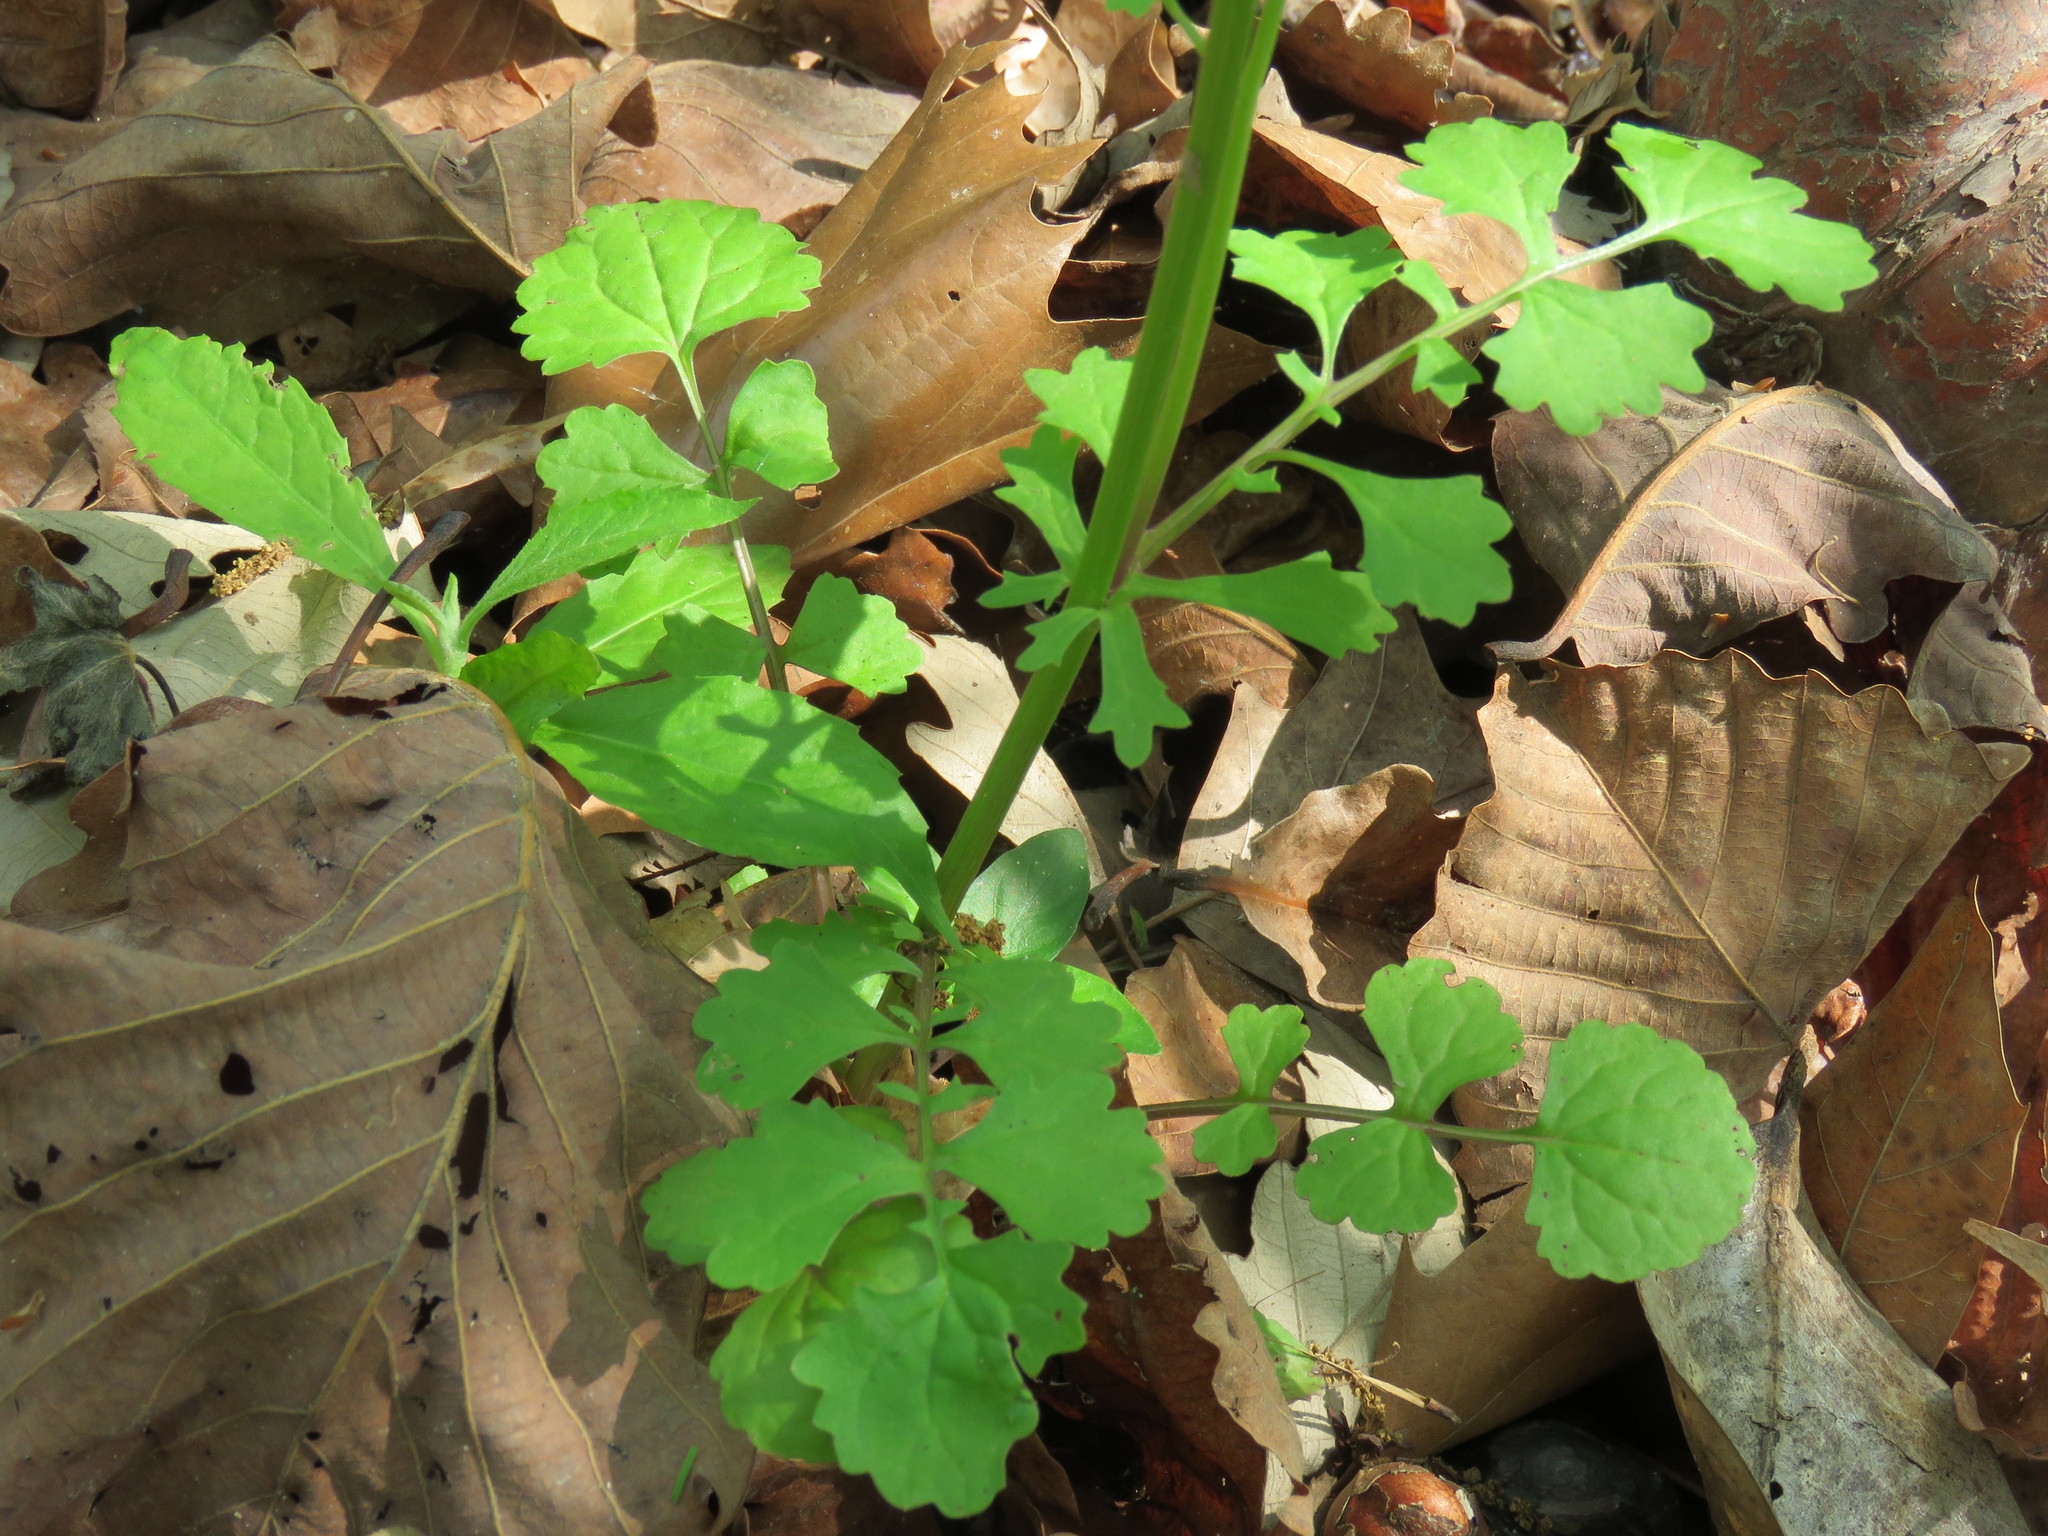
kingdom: Plantae
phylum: Tracheophyta
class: Magnoliopsida
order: Asterales
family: Asteraceae
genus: Packera
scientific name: Packera glabella
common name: Butterweed
